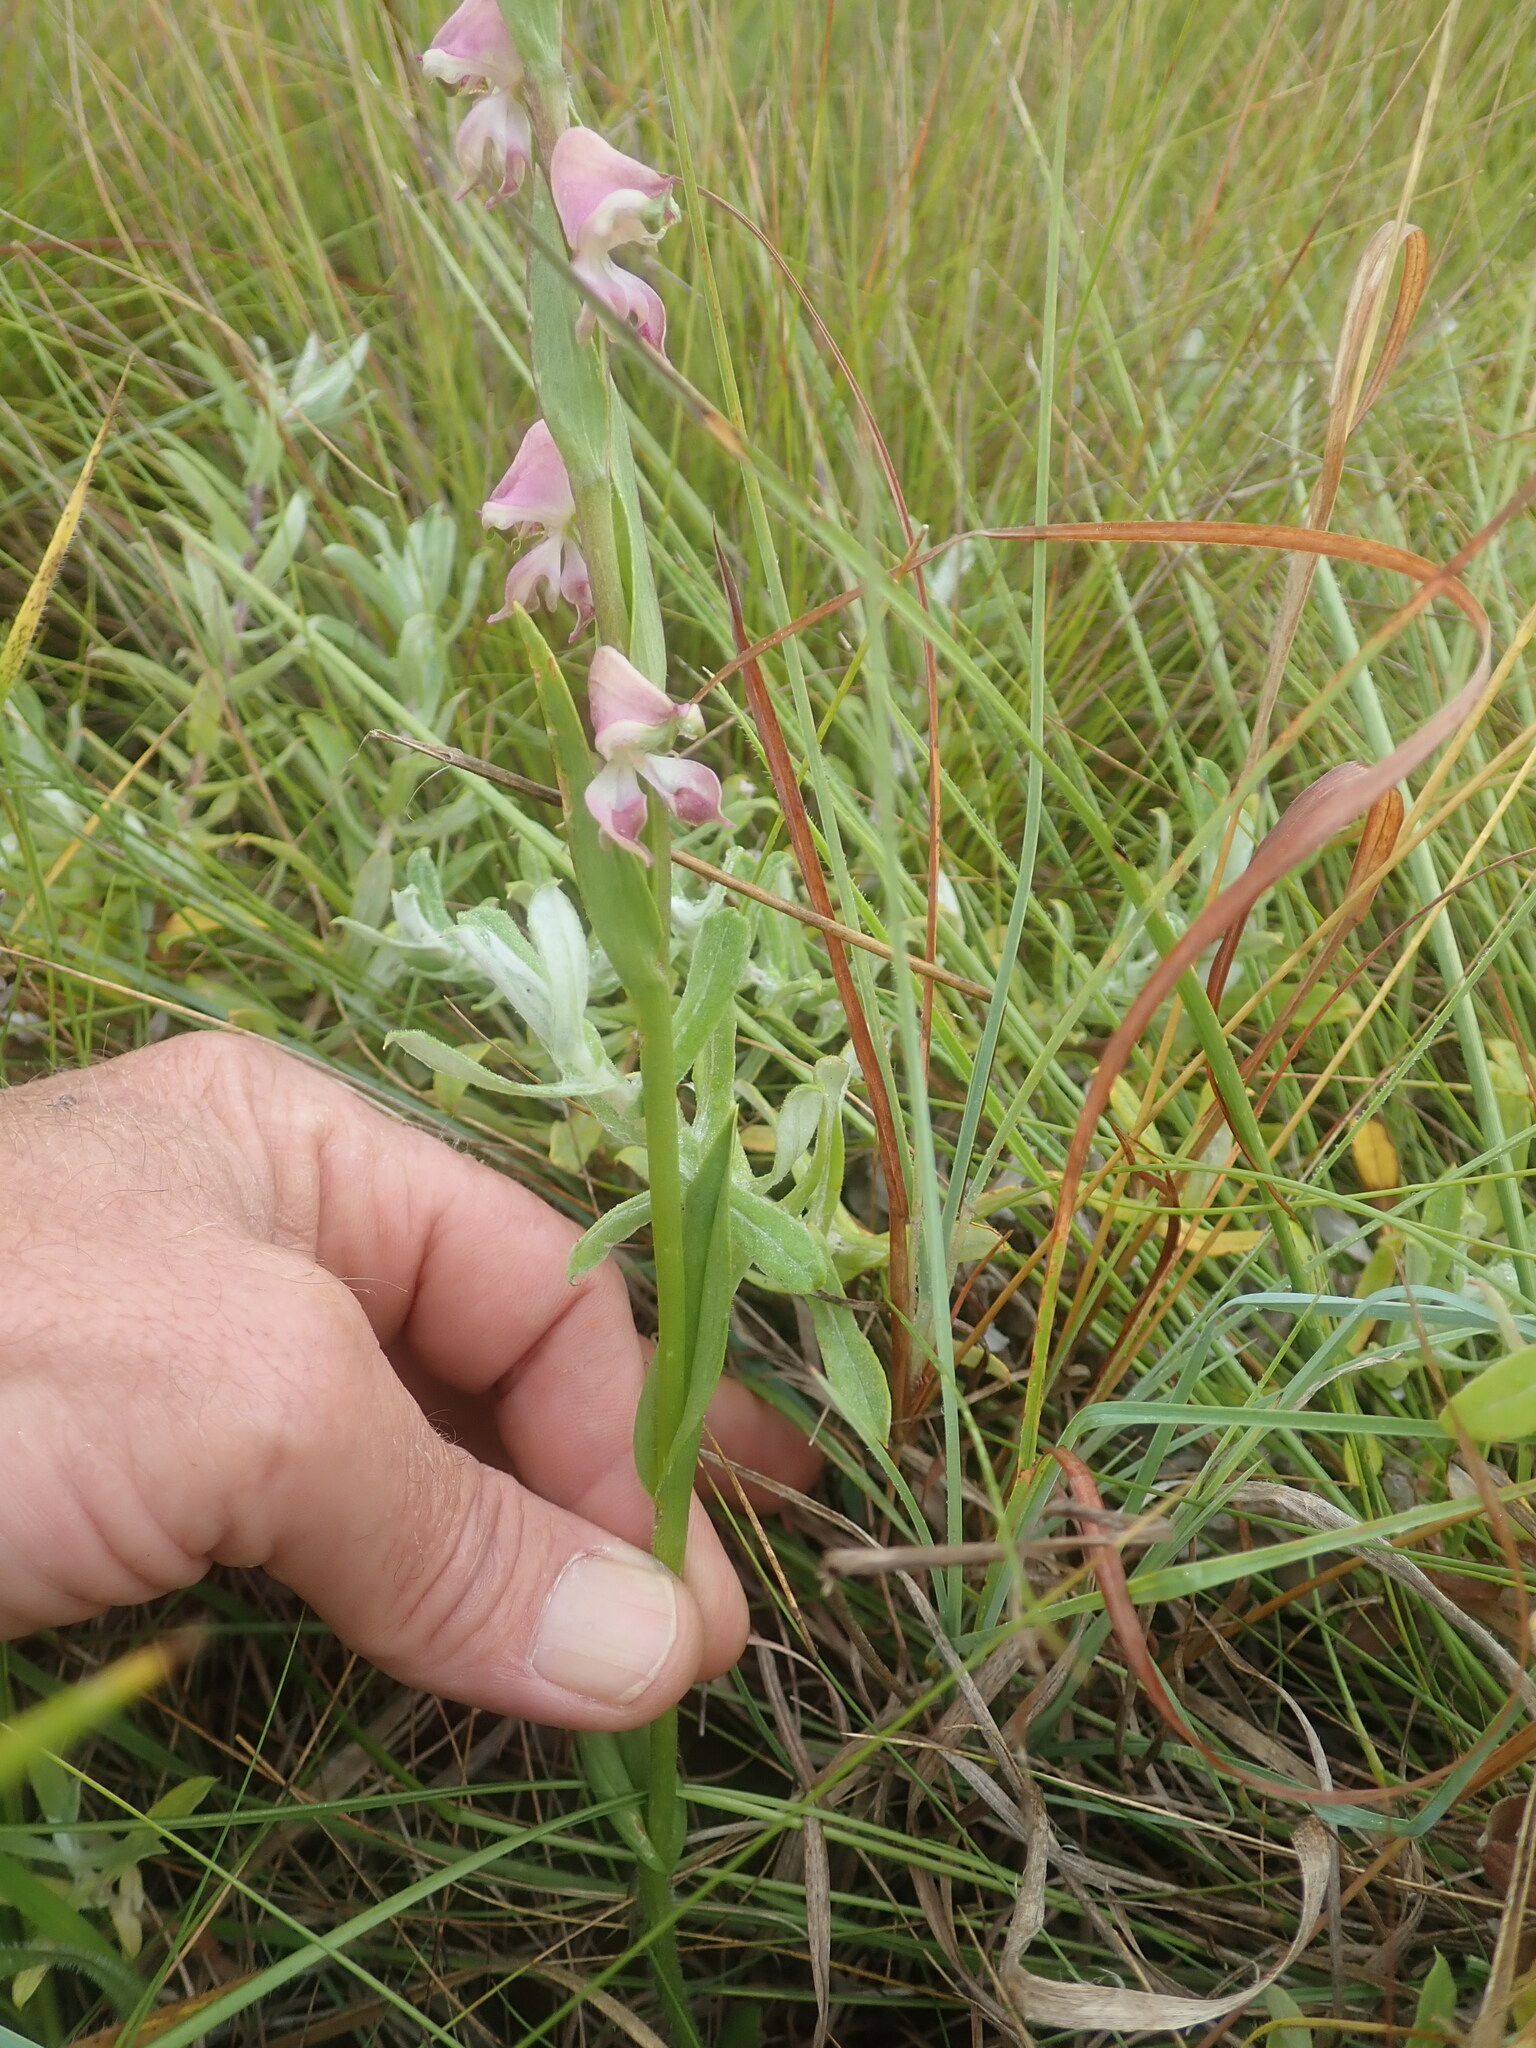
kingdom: Plantae
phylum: Tracheophyta
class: Liliopsida
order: Asparagales
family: Orchidaceae
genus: Disperis
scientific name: Disperis stenoplectron
